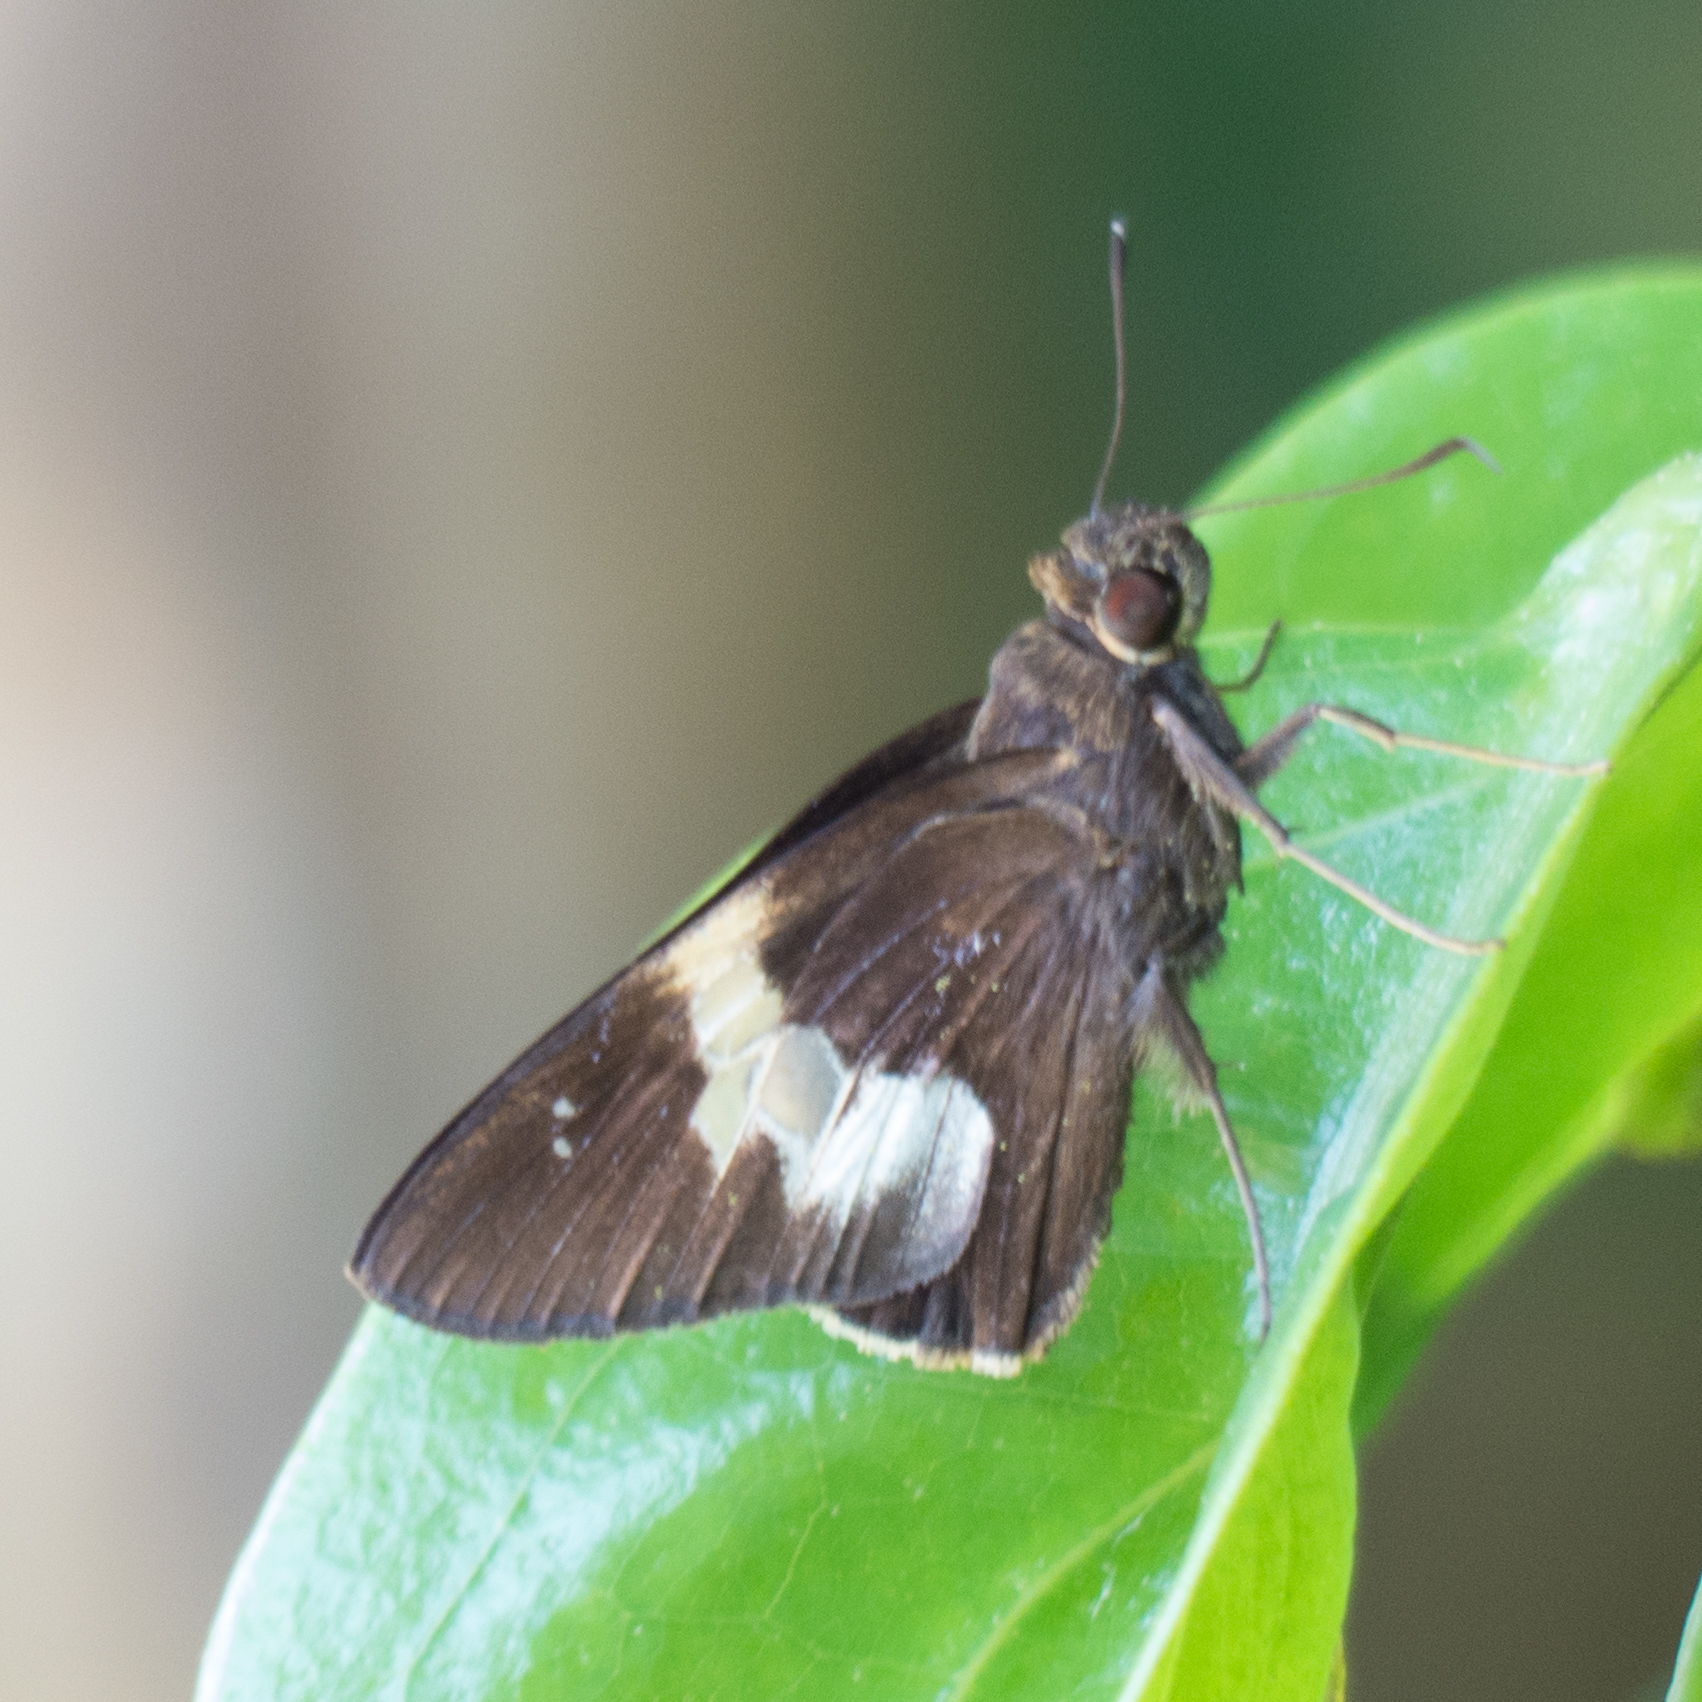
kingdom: Animalia
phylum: Arthropoda
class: Insecta
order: Lepidoptera
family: Hesperiidae
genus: Lotongus
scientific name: Lotongus calathus
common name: White-tipped palmer
